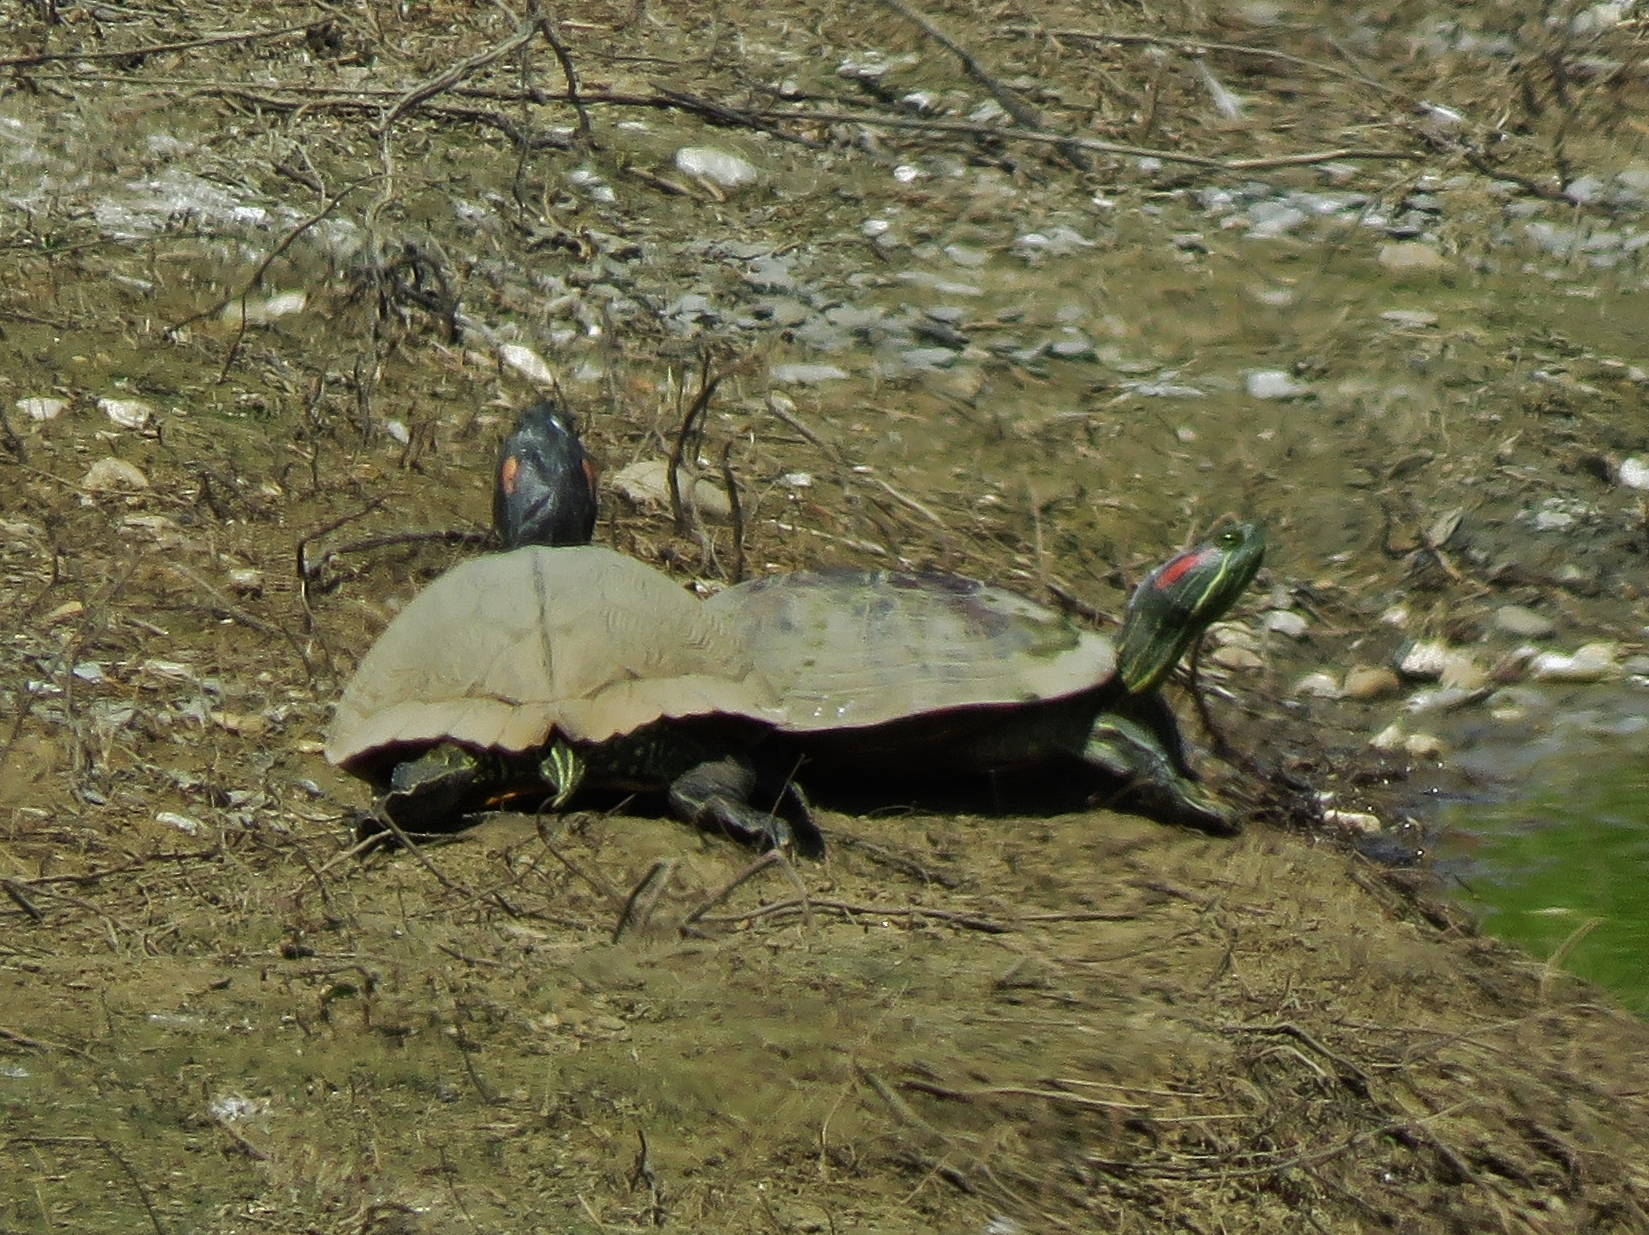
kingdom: Animalia
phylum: Chordata
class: Testudines
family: Emydidae
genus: Trachemys
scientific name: Trachemys scripta
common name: Slider
